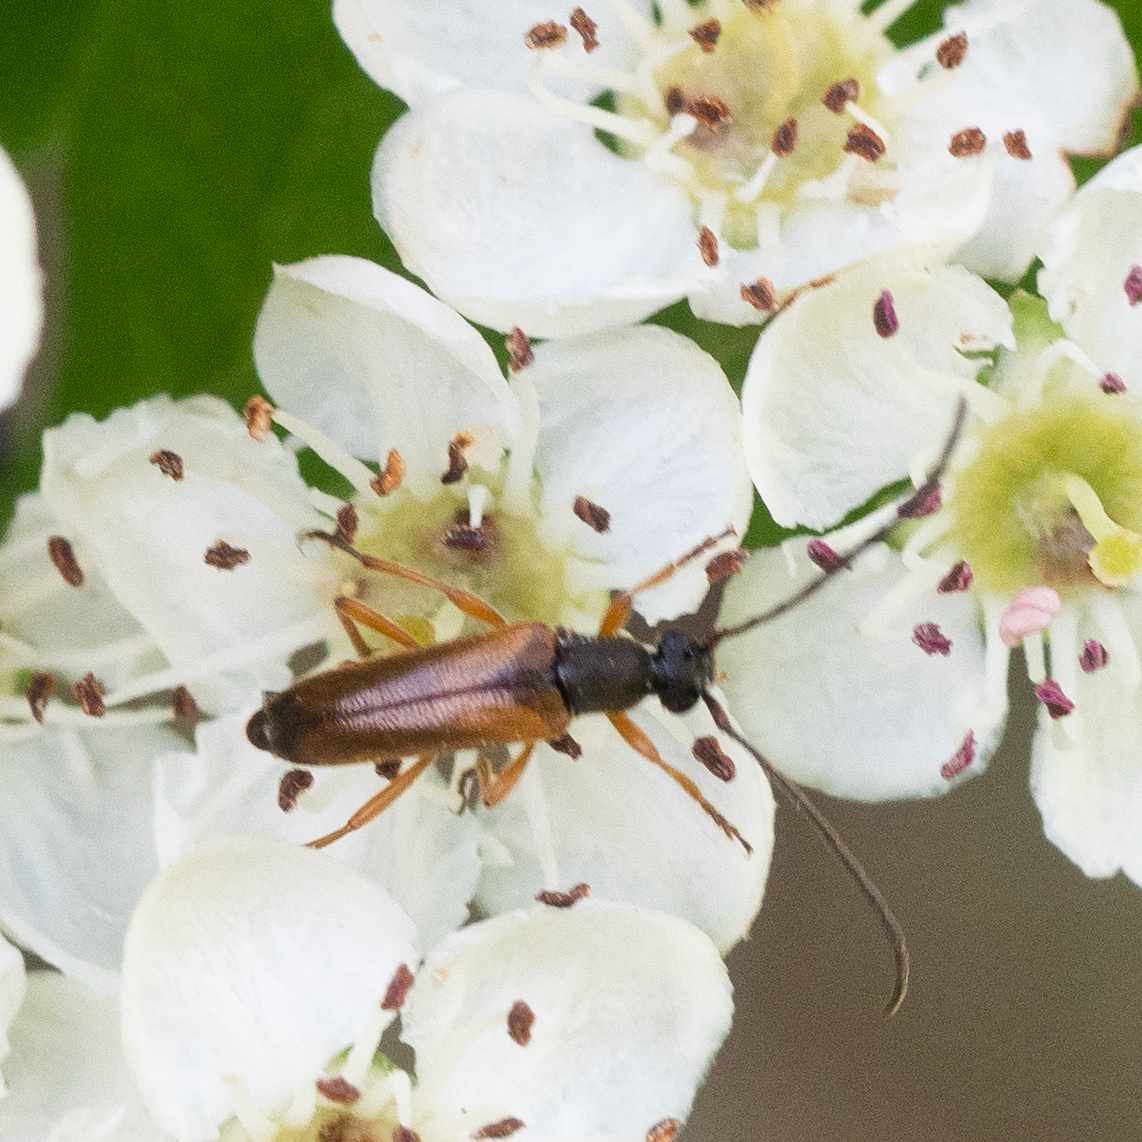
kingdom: Animalia
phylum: Arthropoda
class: Insecta
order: Coleoptera
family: Cerambycidae
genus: Alosterna
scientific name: Alosterna tabacicolor
